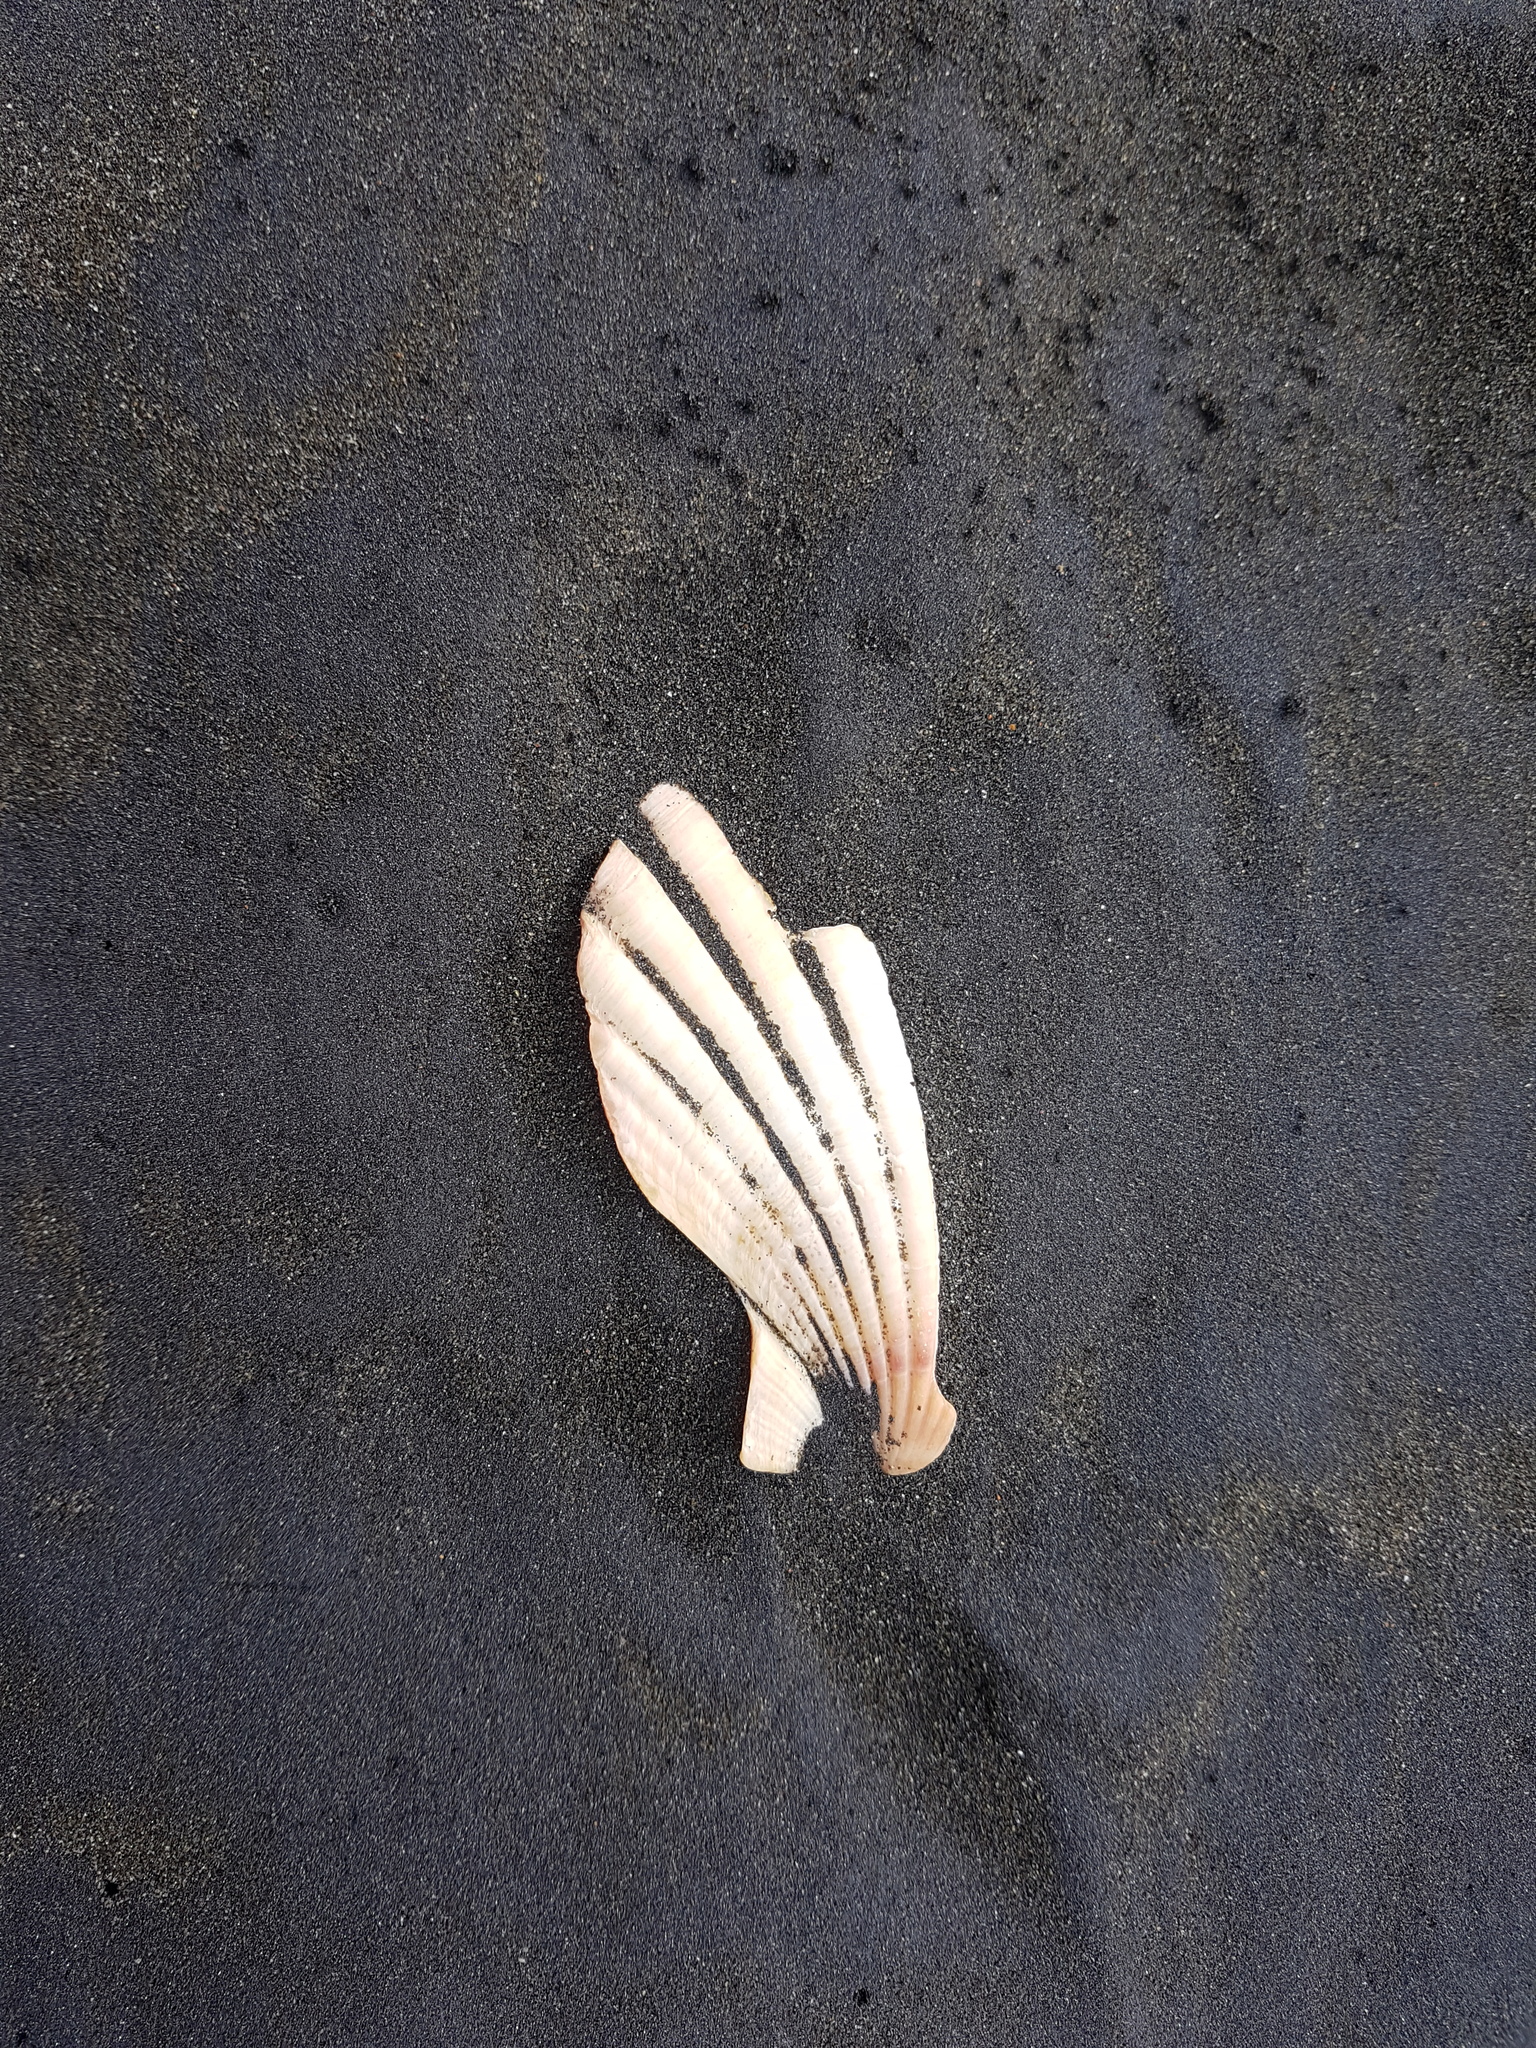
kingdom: Animalia
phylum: Mollusca
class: Bivalvia
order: Pectinida
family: Pectinidae
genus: Pecten
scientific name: Pecten novaezelandiae
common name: New zealand scallop
